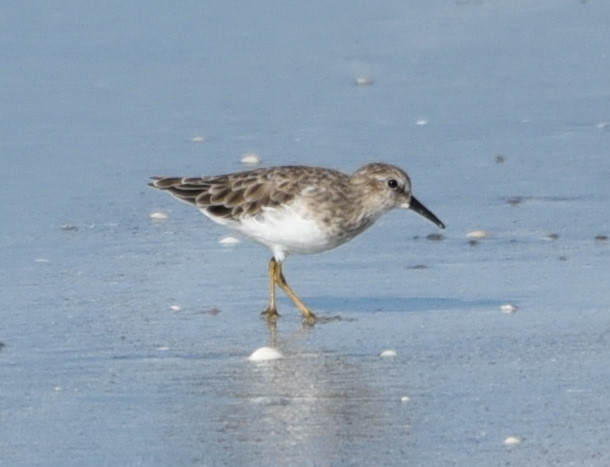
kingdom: Animalia
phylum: Chordata
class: Aves
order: Charadriiformes
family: Scolopacidae
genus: Calidris
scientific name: Calidris minutilla
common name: Least sandpiper
